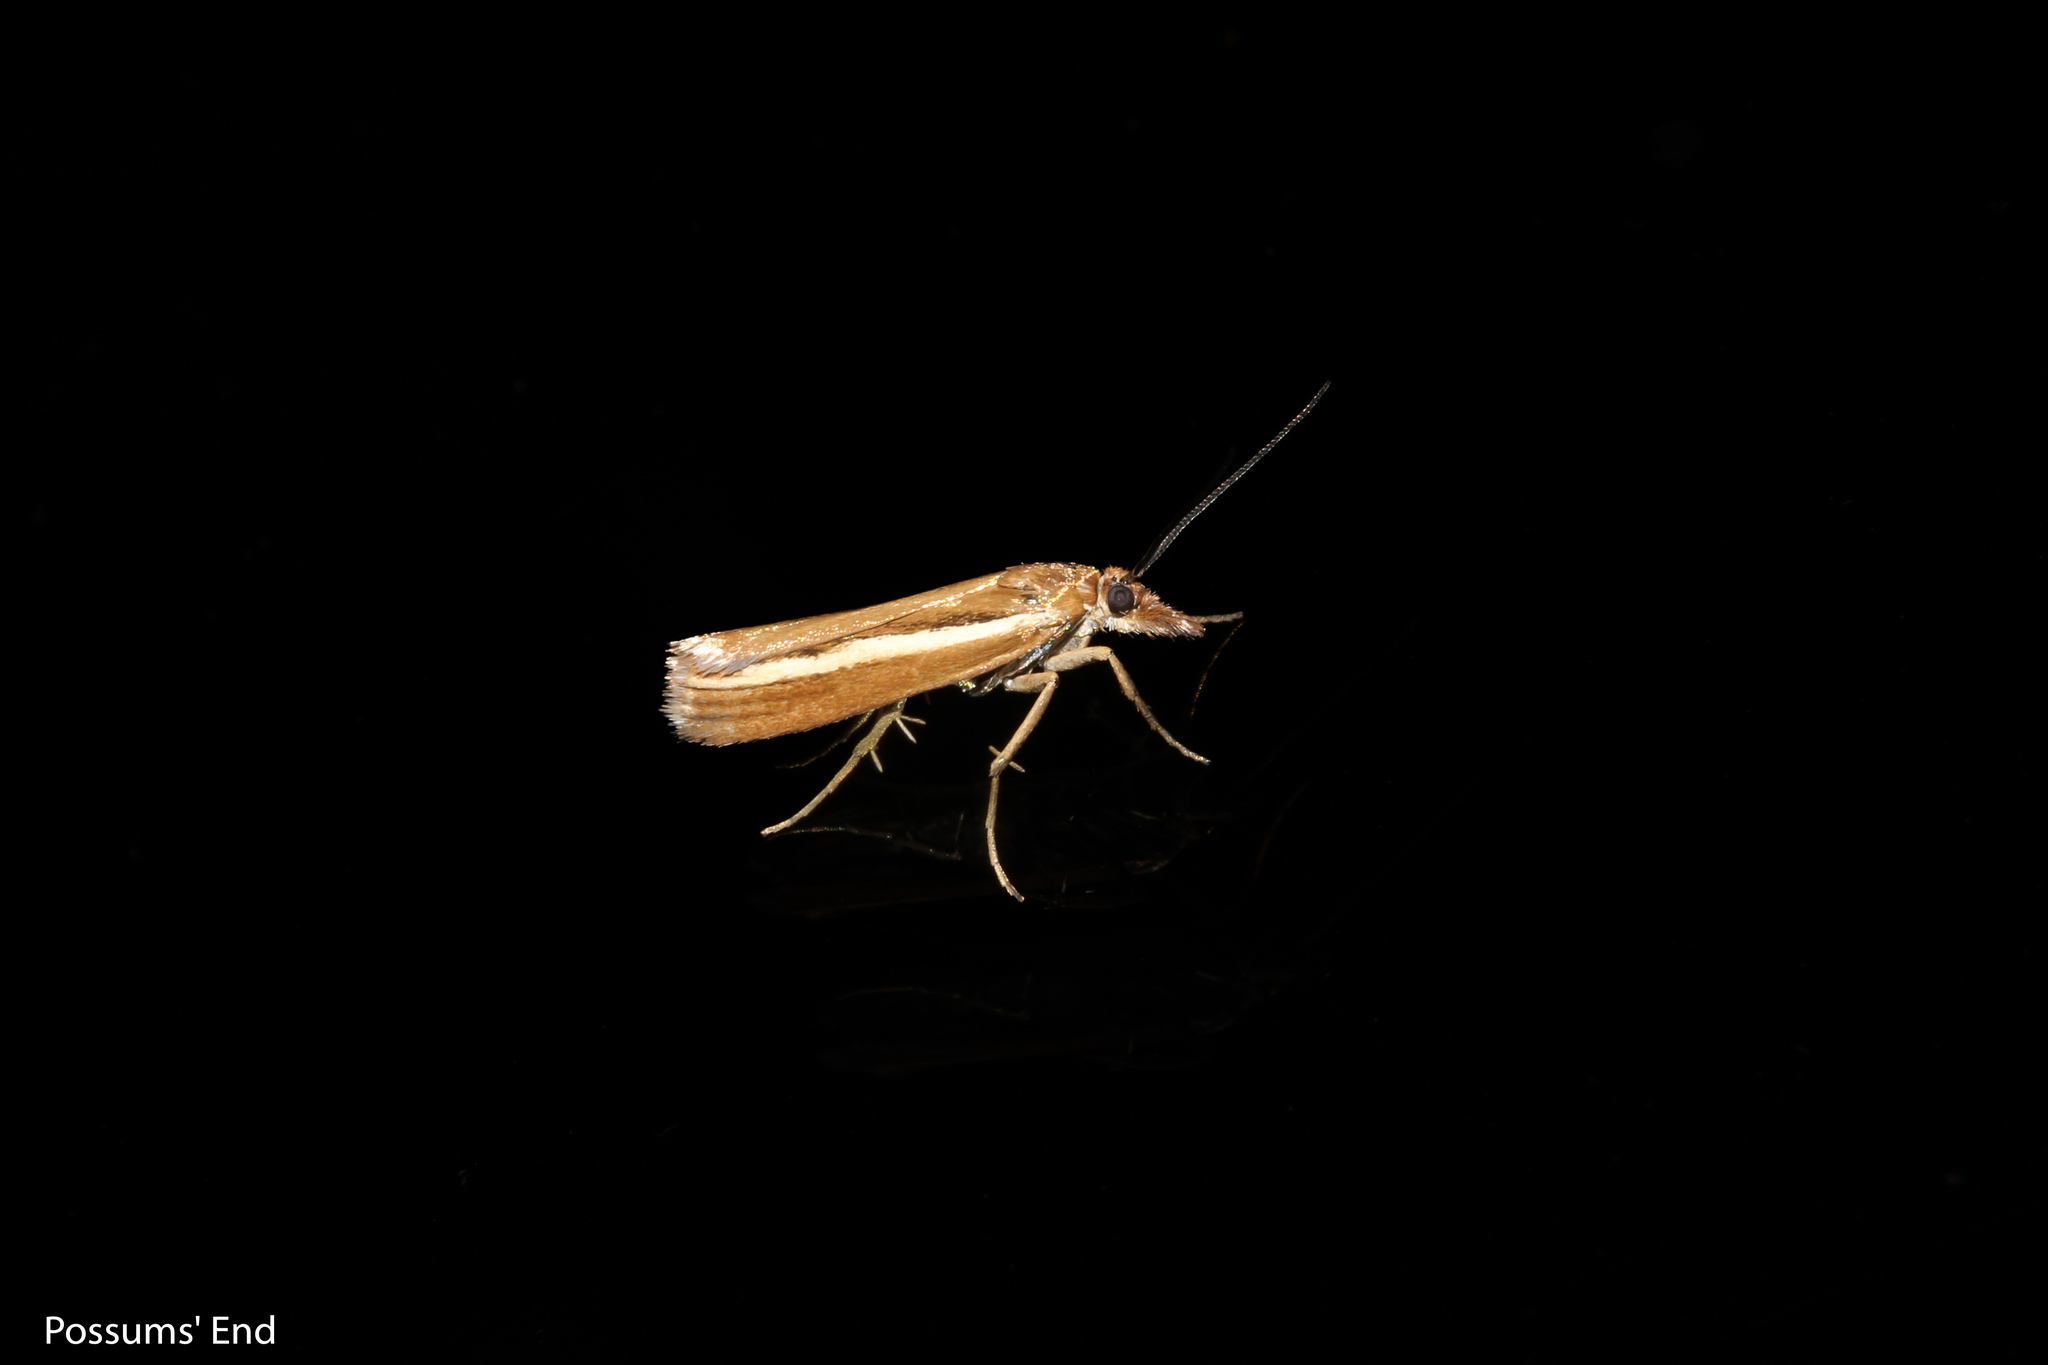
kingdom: Animalia
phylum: Arthropoda
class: Insecta
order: Lepidoptera
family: Crambidae
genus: Orocrambus
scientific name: Orocrambus melitastes
